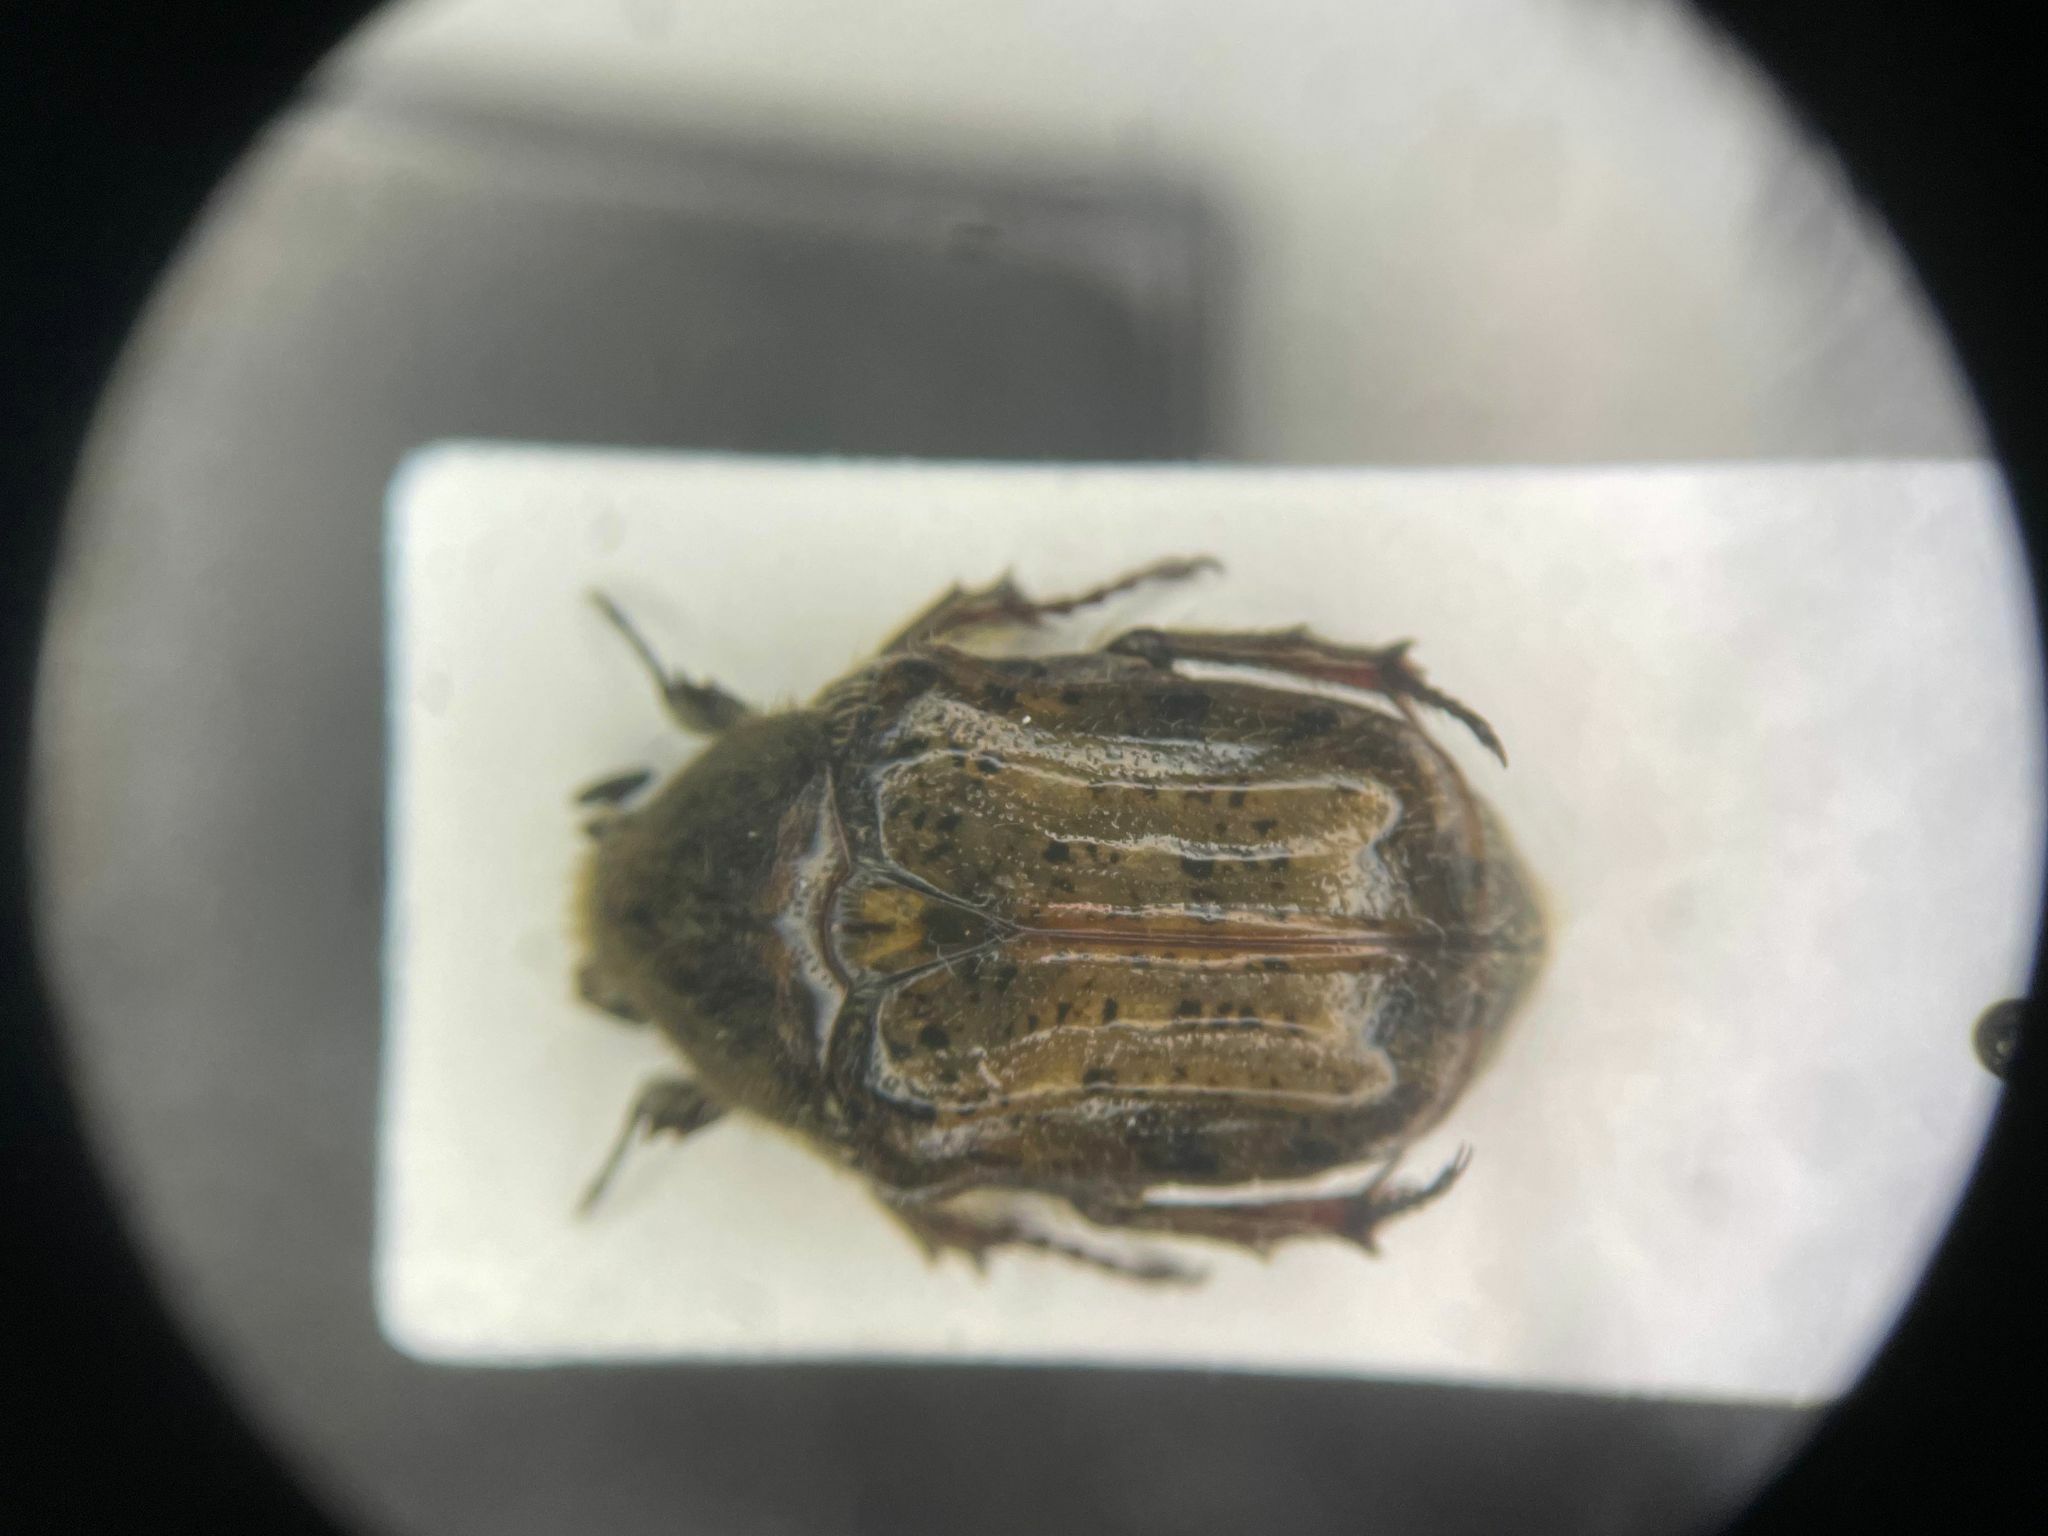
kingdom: Animalia
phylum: Arthropoda
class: Insecta
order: Coleoptera
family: Scarabaeidae
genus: Euphoria
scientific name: Euphoria inda
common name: Bumble flower beetle
